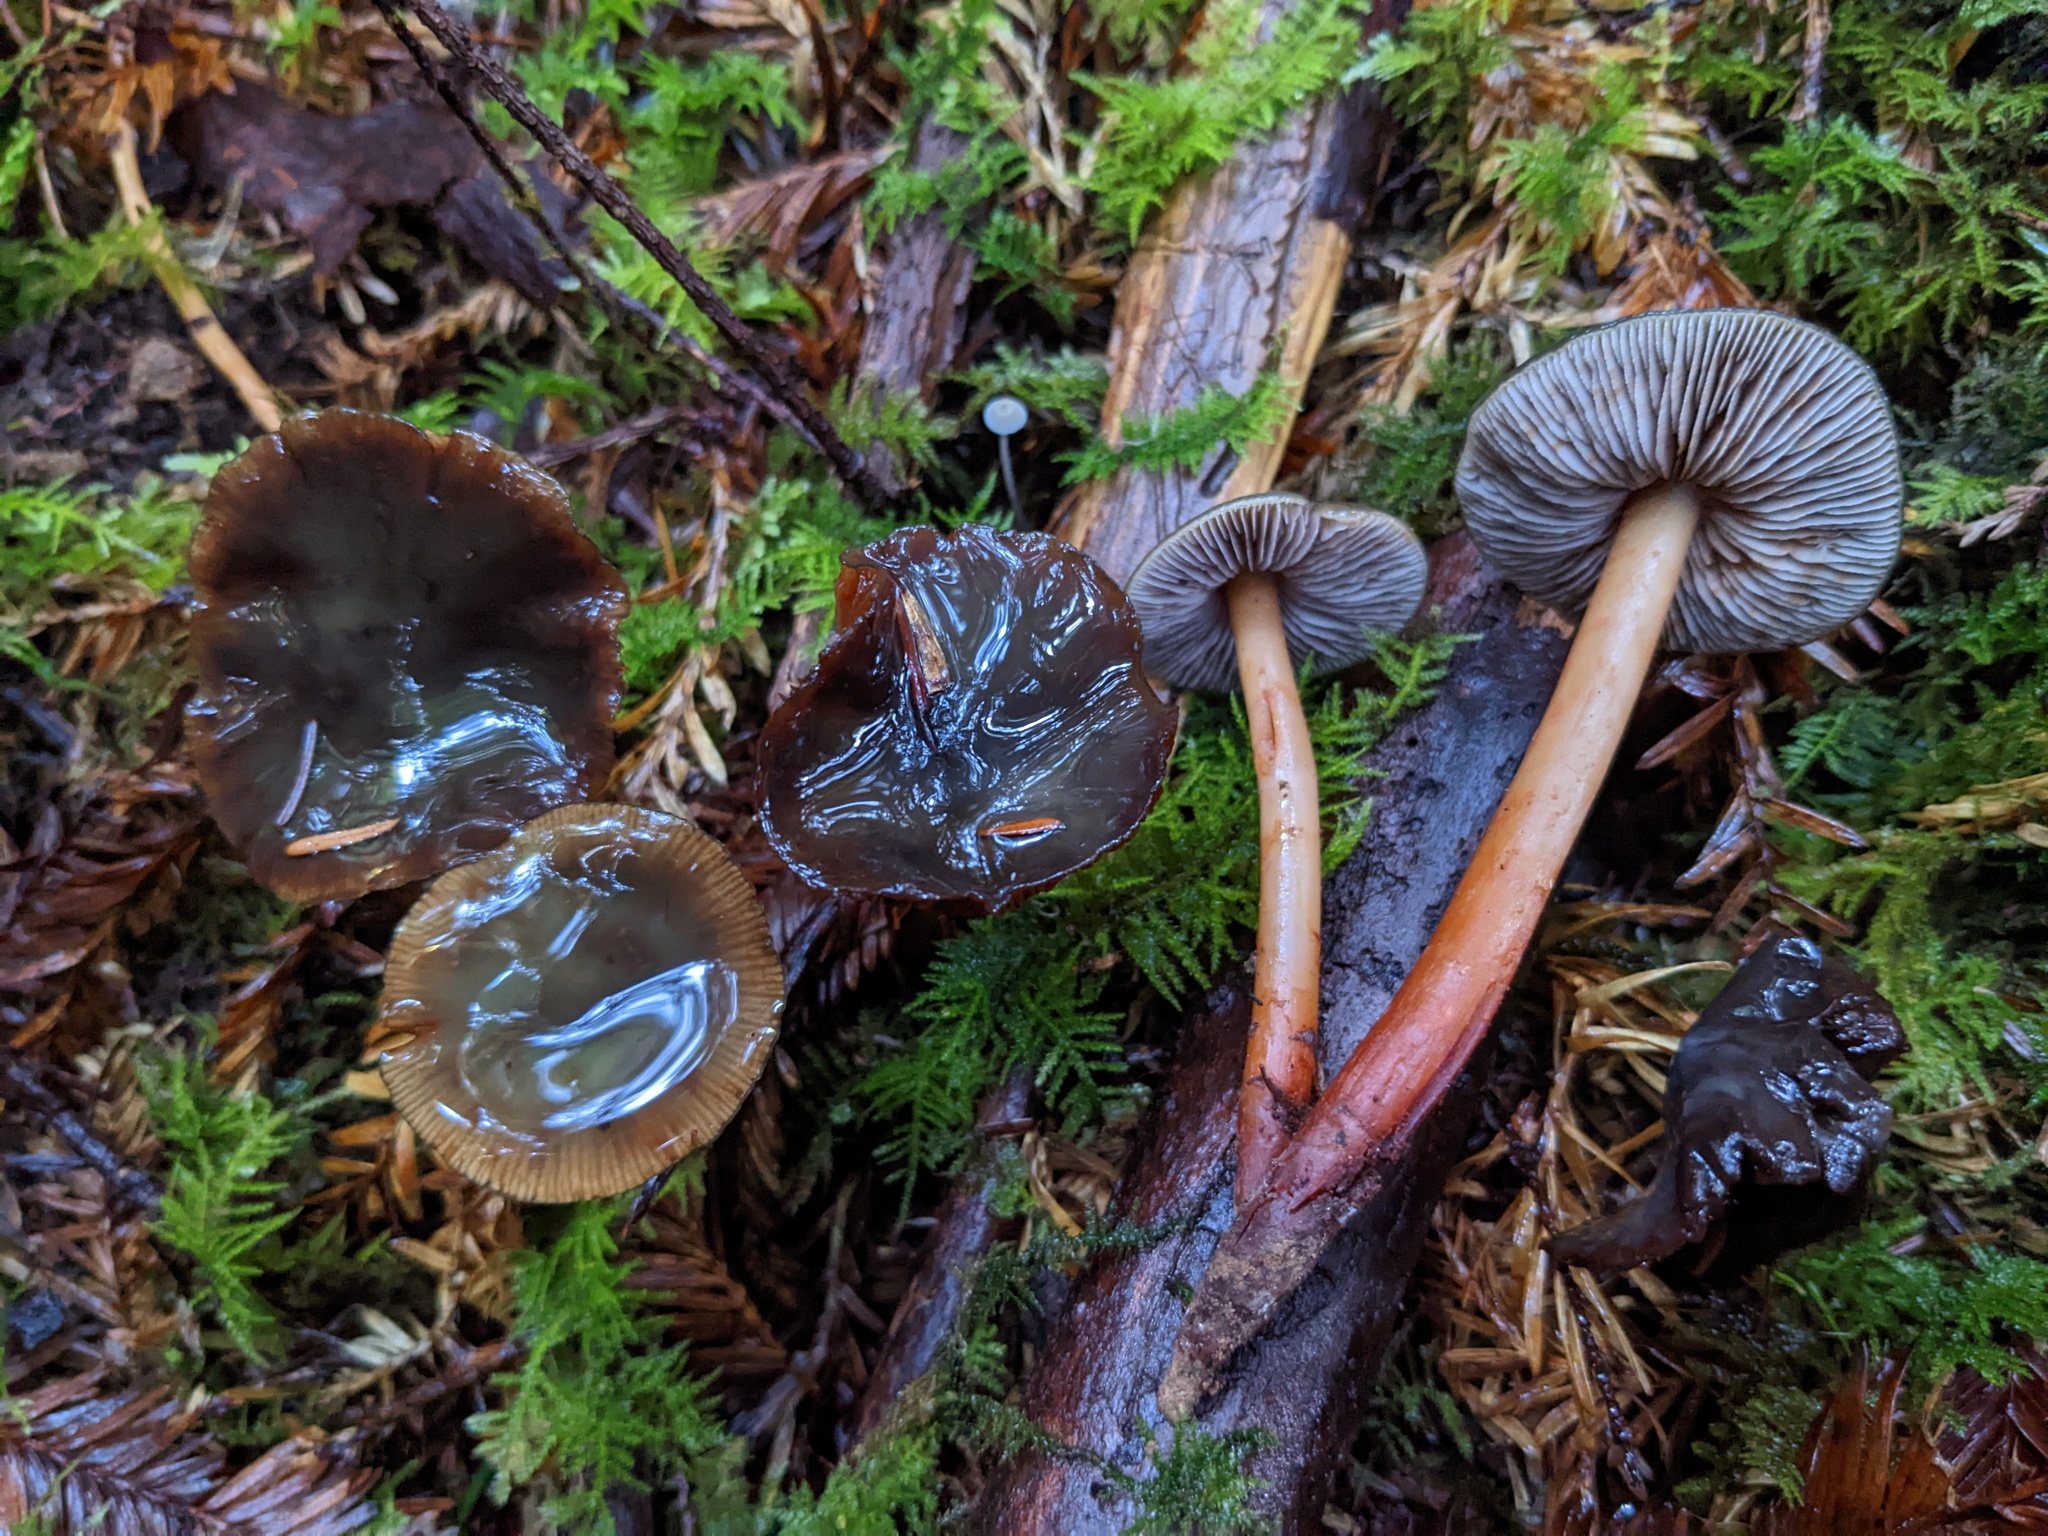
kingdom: Fungi
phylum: Basidiomycota
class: Agaricomycetes
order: Agaricales
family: Hymenogastraceae
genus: Phaeocollybia
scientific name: Phaeocollybia fallax
